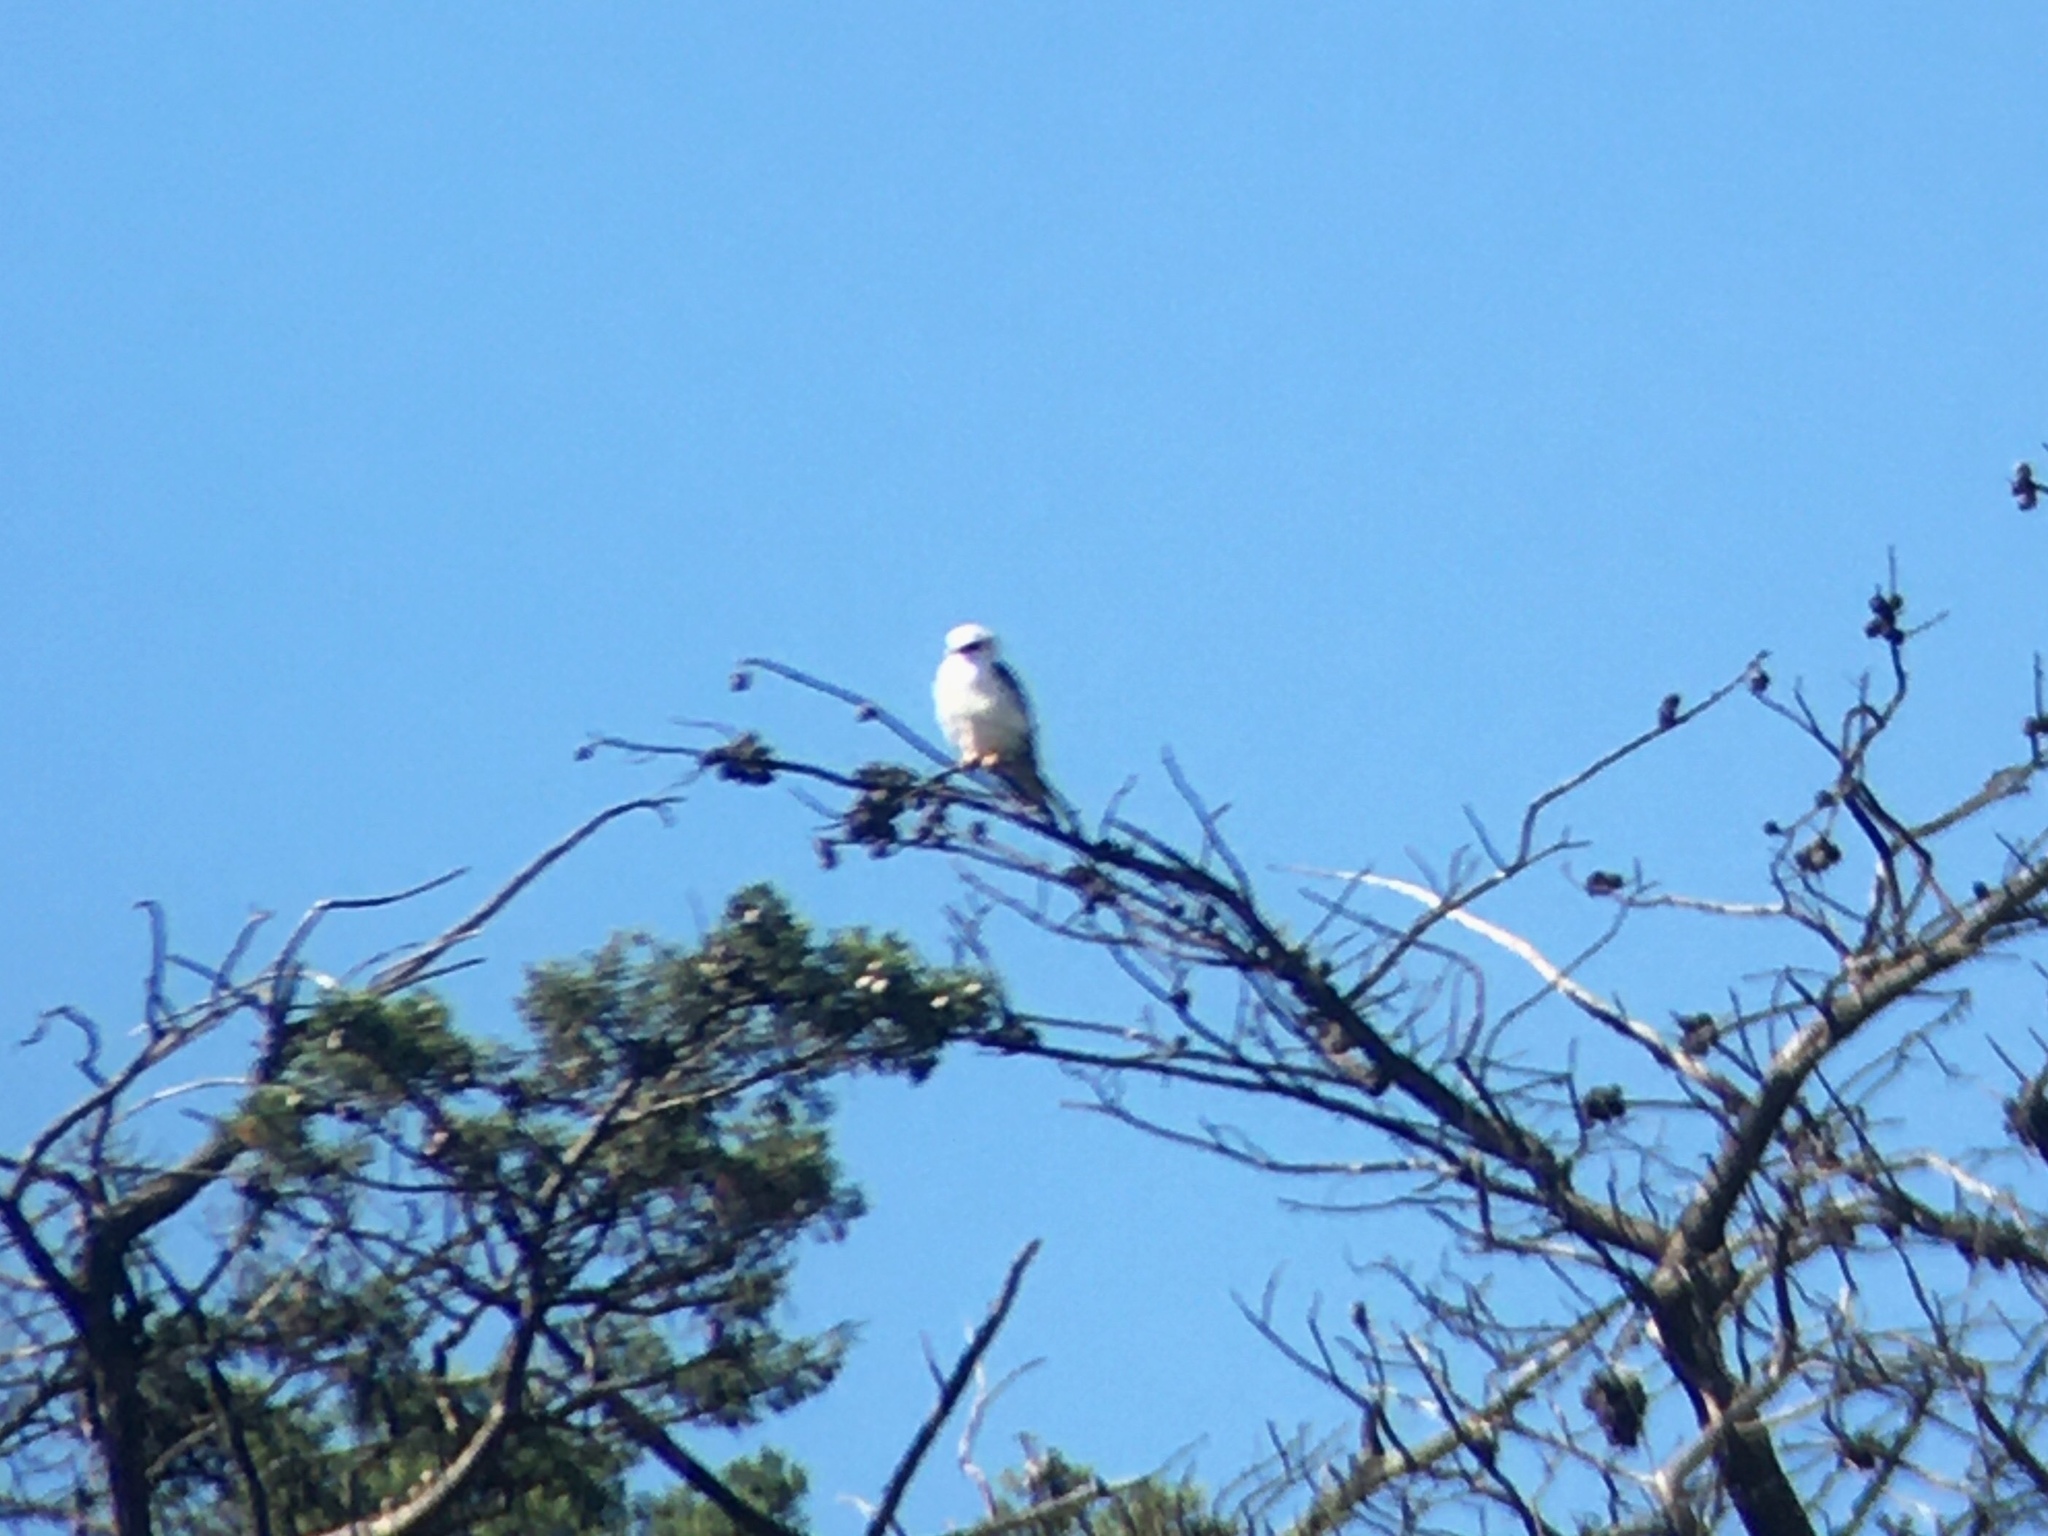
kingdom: Animalia
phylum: Chordata
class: Aves
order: Accipitriformes
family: Accipitridae
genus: Elanus
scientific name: Elanus leucurus
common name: White-tailed kite
